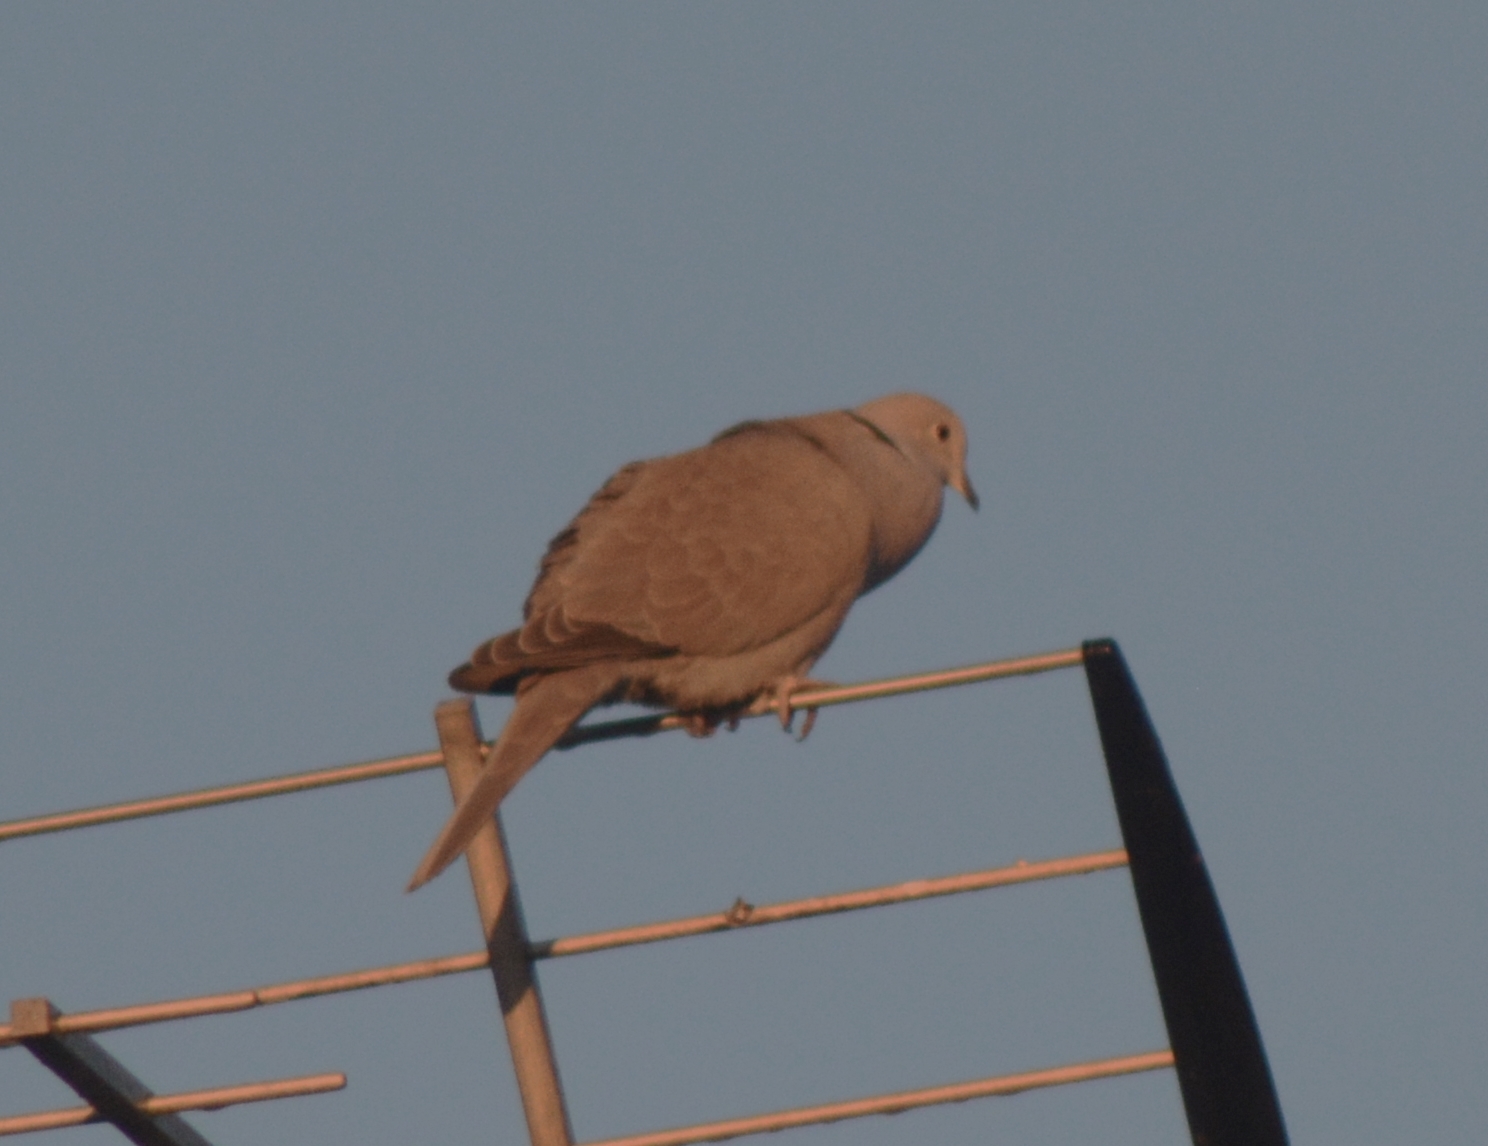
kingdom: Animalia
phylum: Chordata
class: Aves
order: Columbiformes
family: Columbidae
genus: Streptopelia
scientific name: Streptopelia decaocto
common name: Eurasian collared dove
